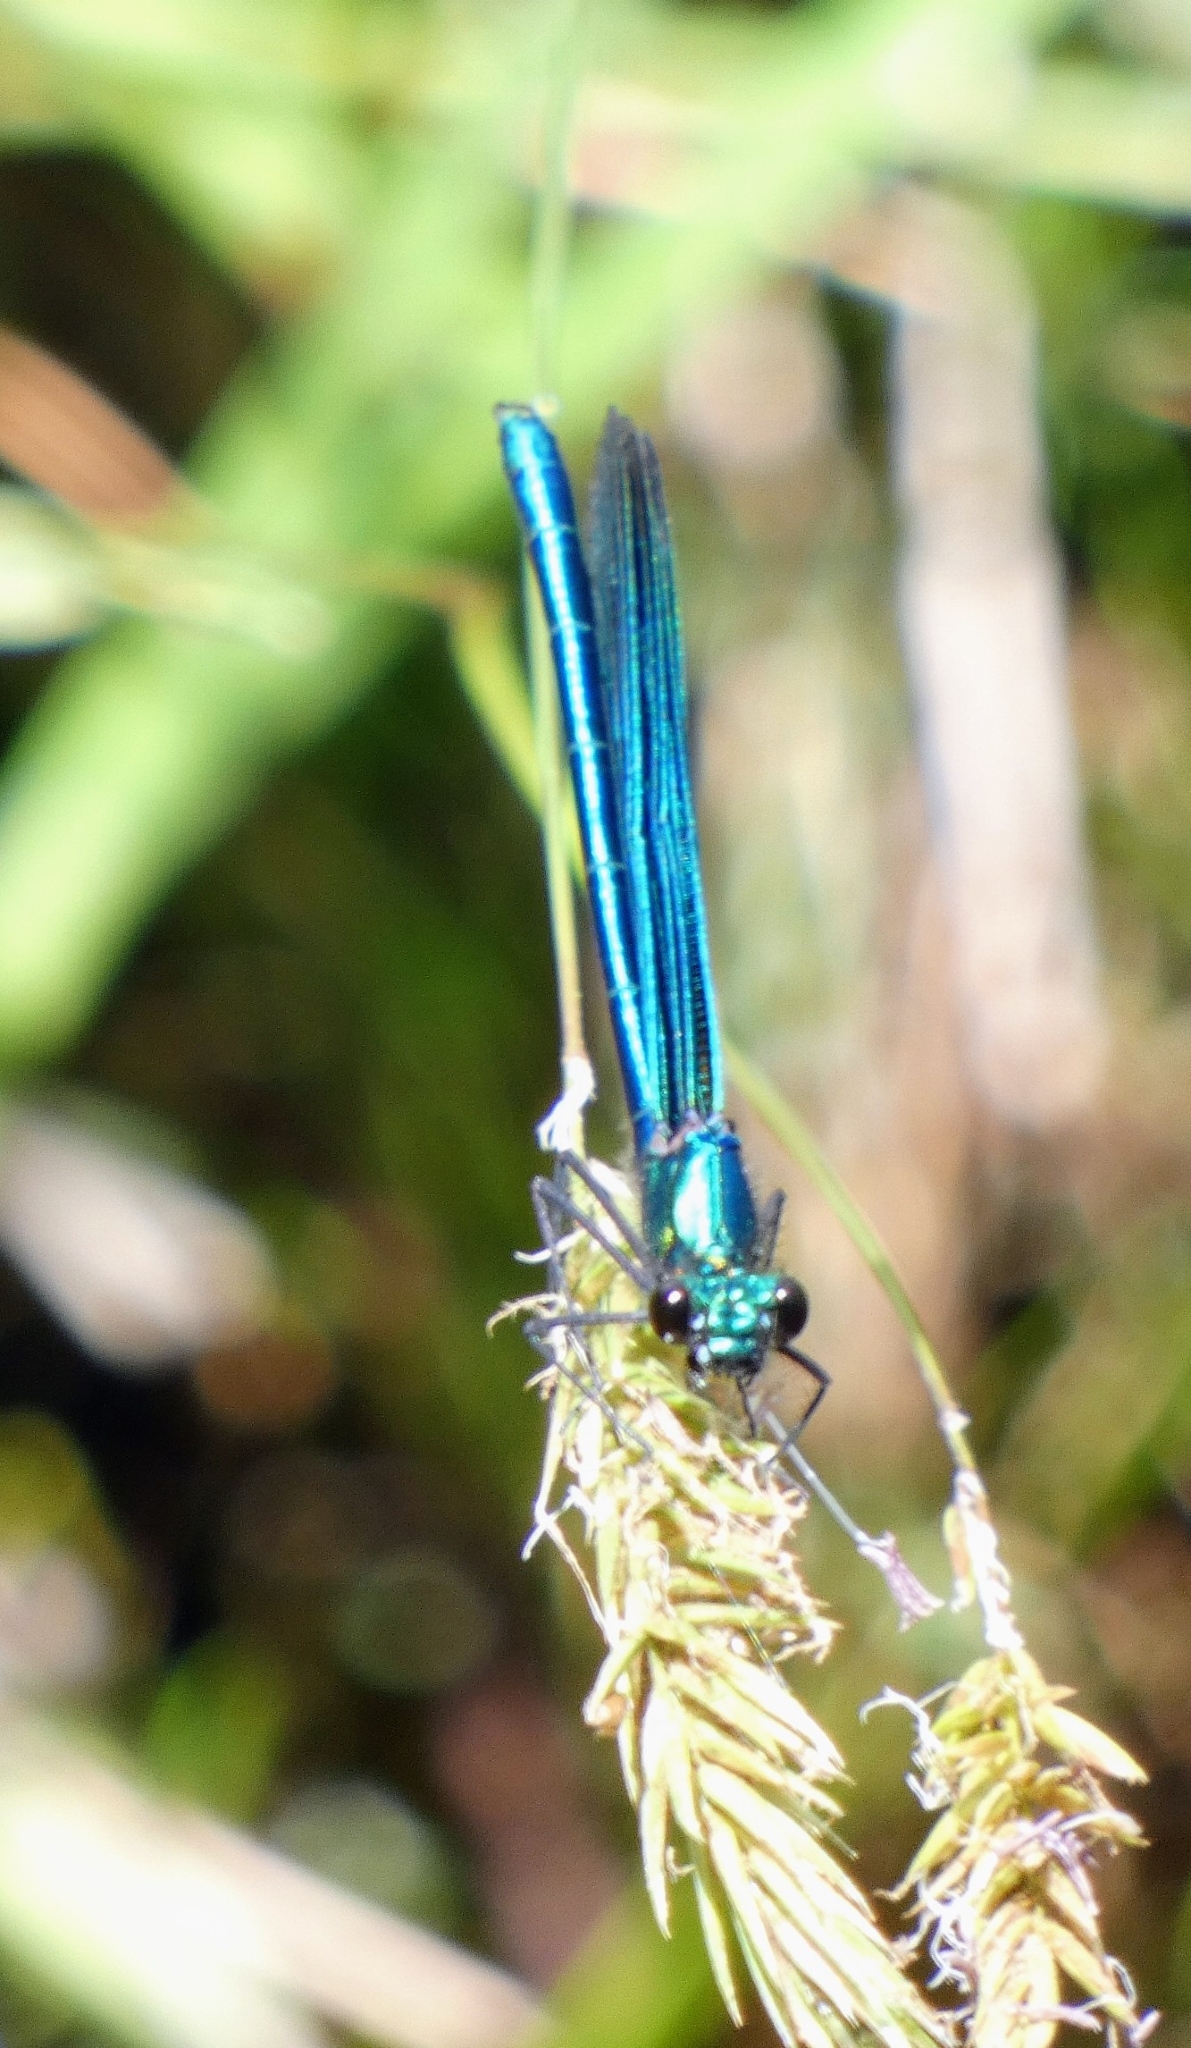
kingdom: Animalia
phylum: Arthropoda
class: Insecta
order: Odonata
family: Calopterygidae
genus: Calopteryx
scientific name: Calopteryx virgo
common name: Beautiful demoiselle
